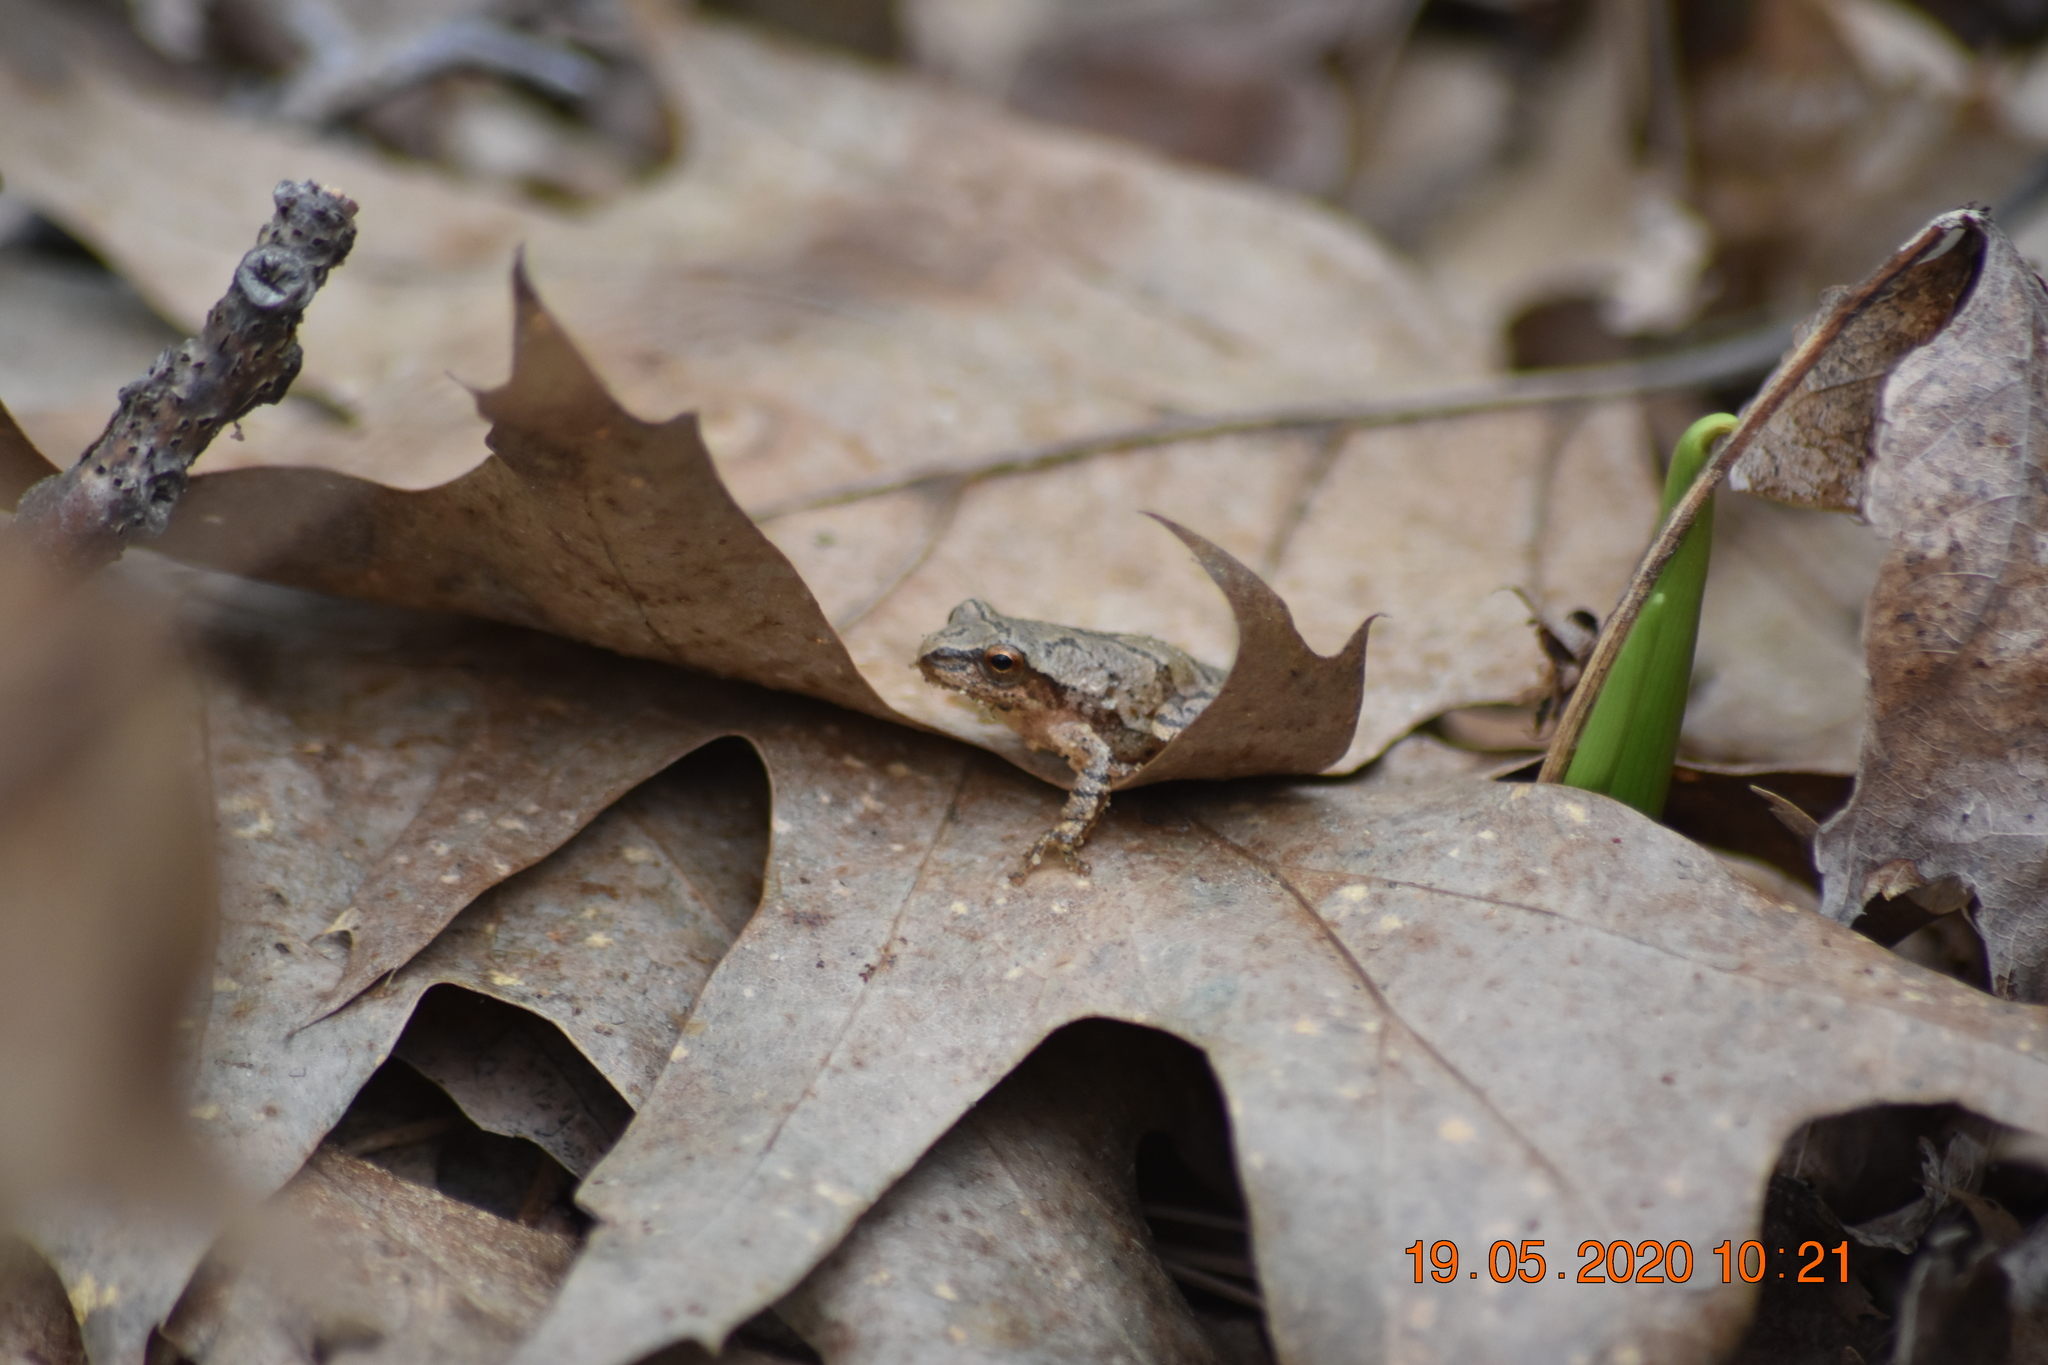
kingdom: Animalia
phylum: Chordata
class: Amphibia
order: Anura
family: Hylidae
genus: Pseudacris
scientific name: Pseudacris crucifer
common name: Spring peeper
